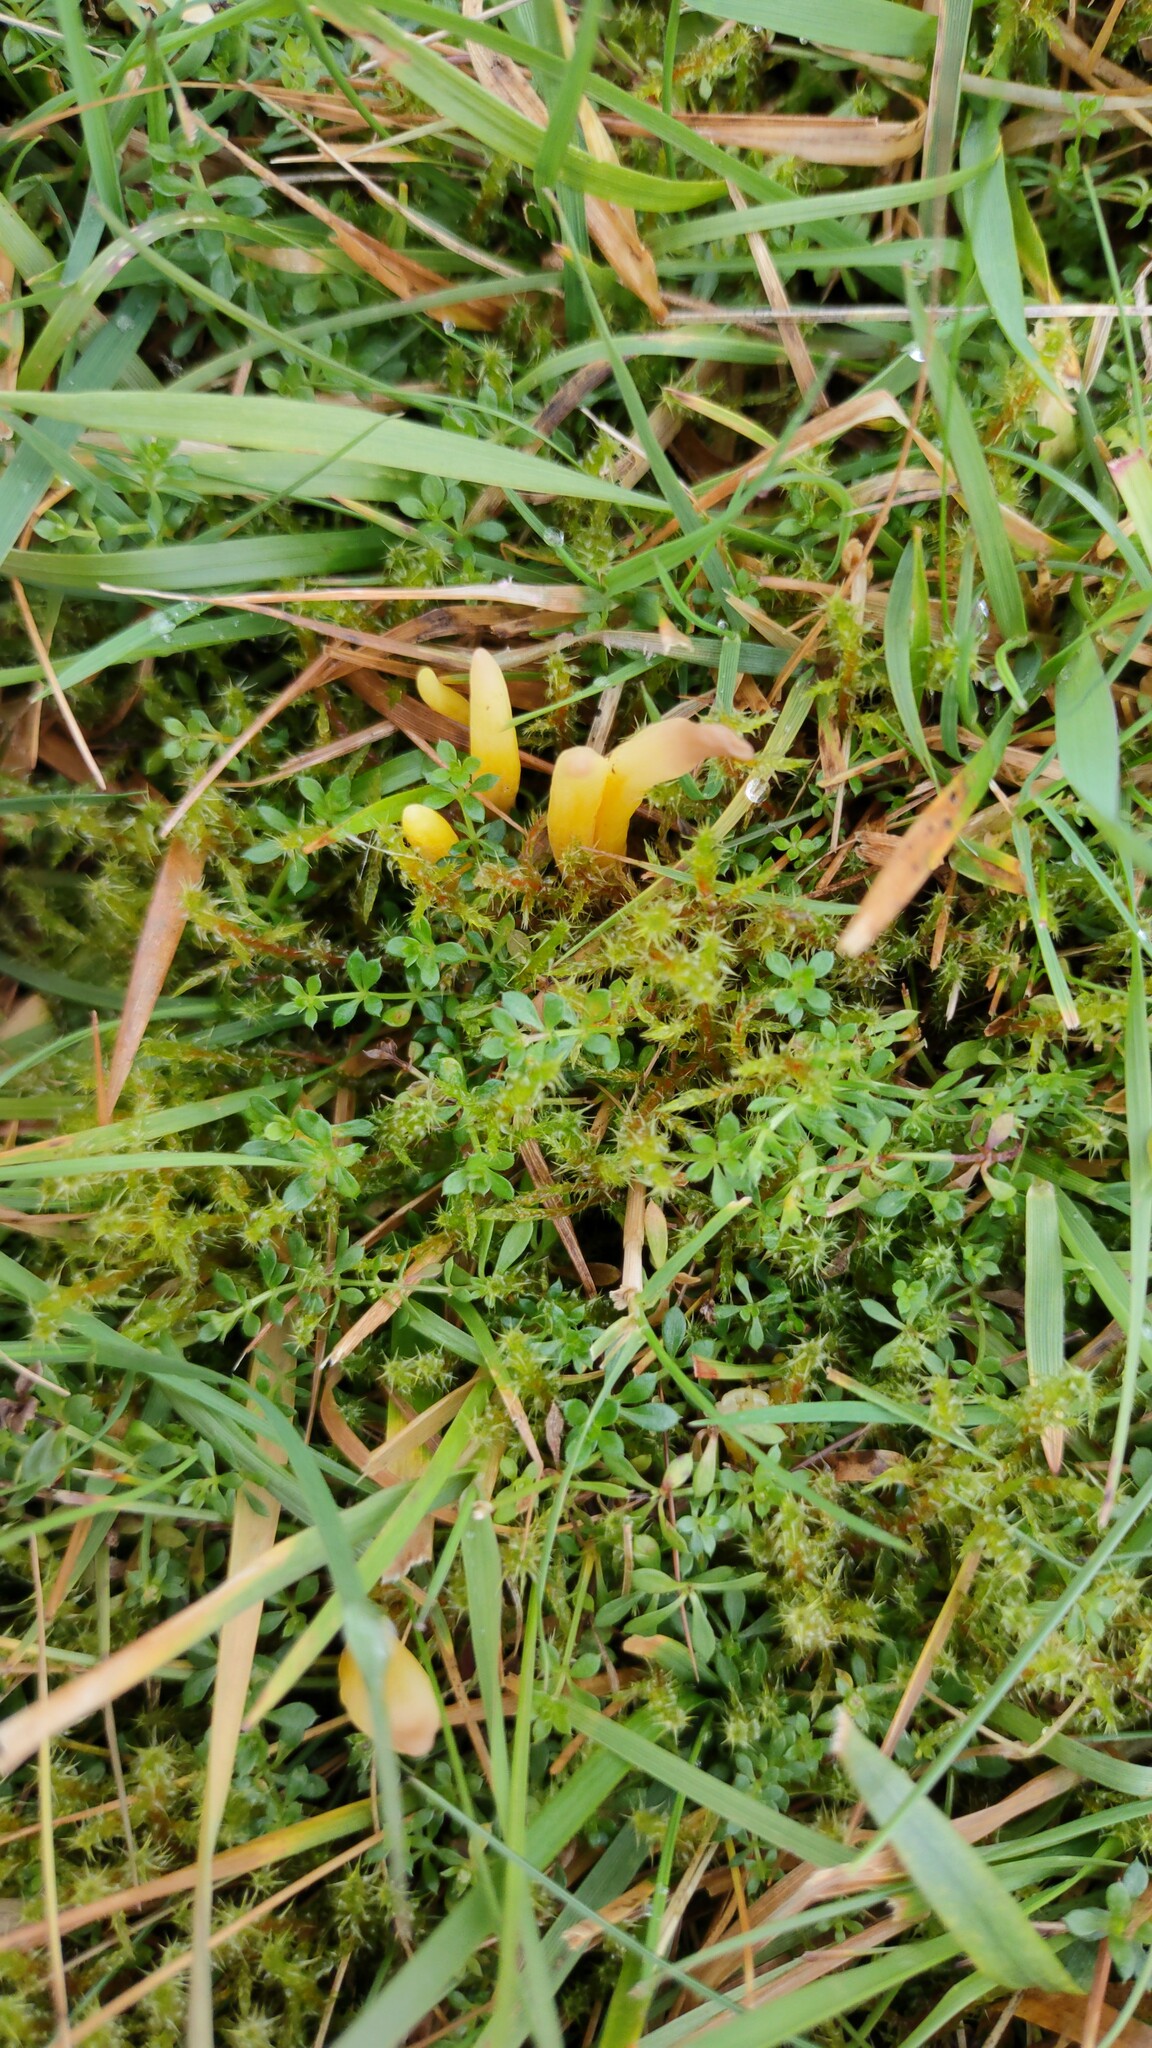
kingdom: Fungi
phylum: Basidiomycota
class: Agaricomycetes
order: Agaricales
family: Clavariaceae
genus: Clavulinopsis
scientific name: Clavulinopsis helvola
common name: Yellow club
